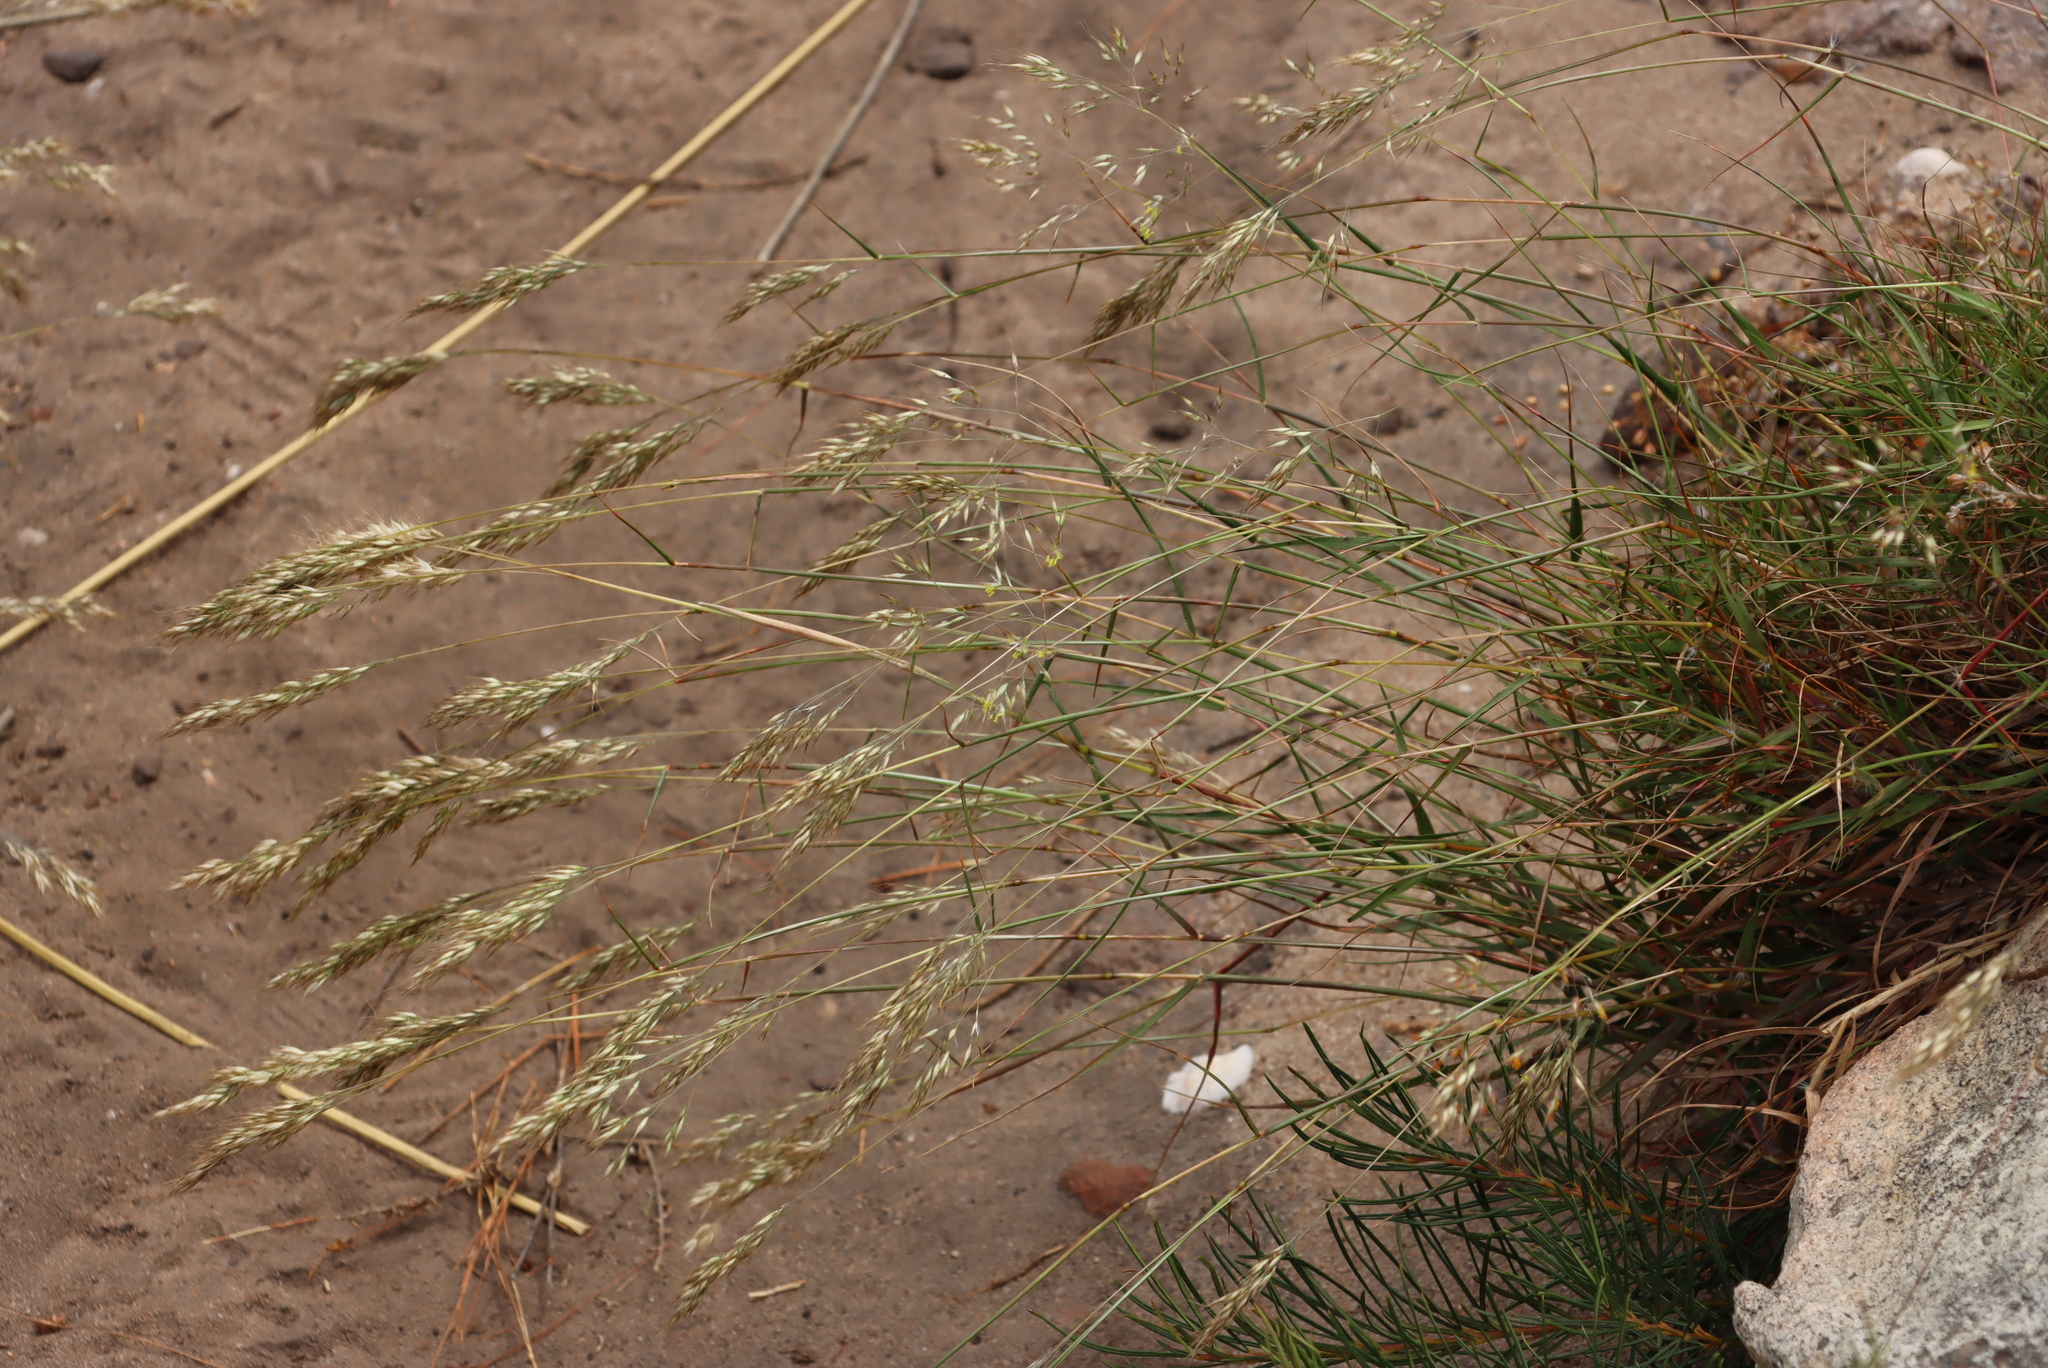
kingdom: Plantae
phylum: Tracheophyta
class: Liliopsida
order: Poales
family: Poaceae
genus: Pentameris
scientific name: Pentameris barbata
